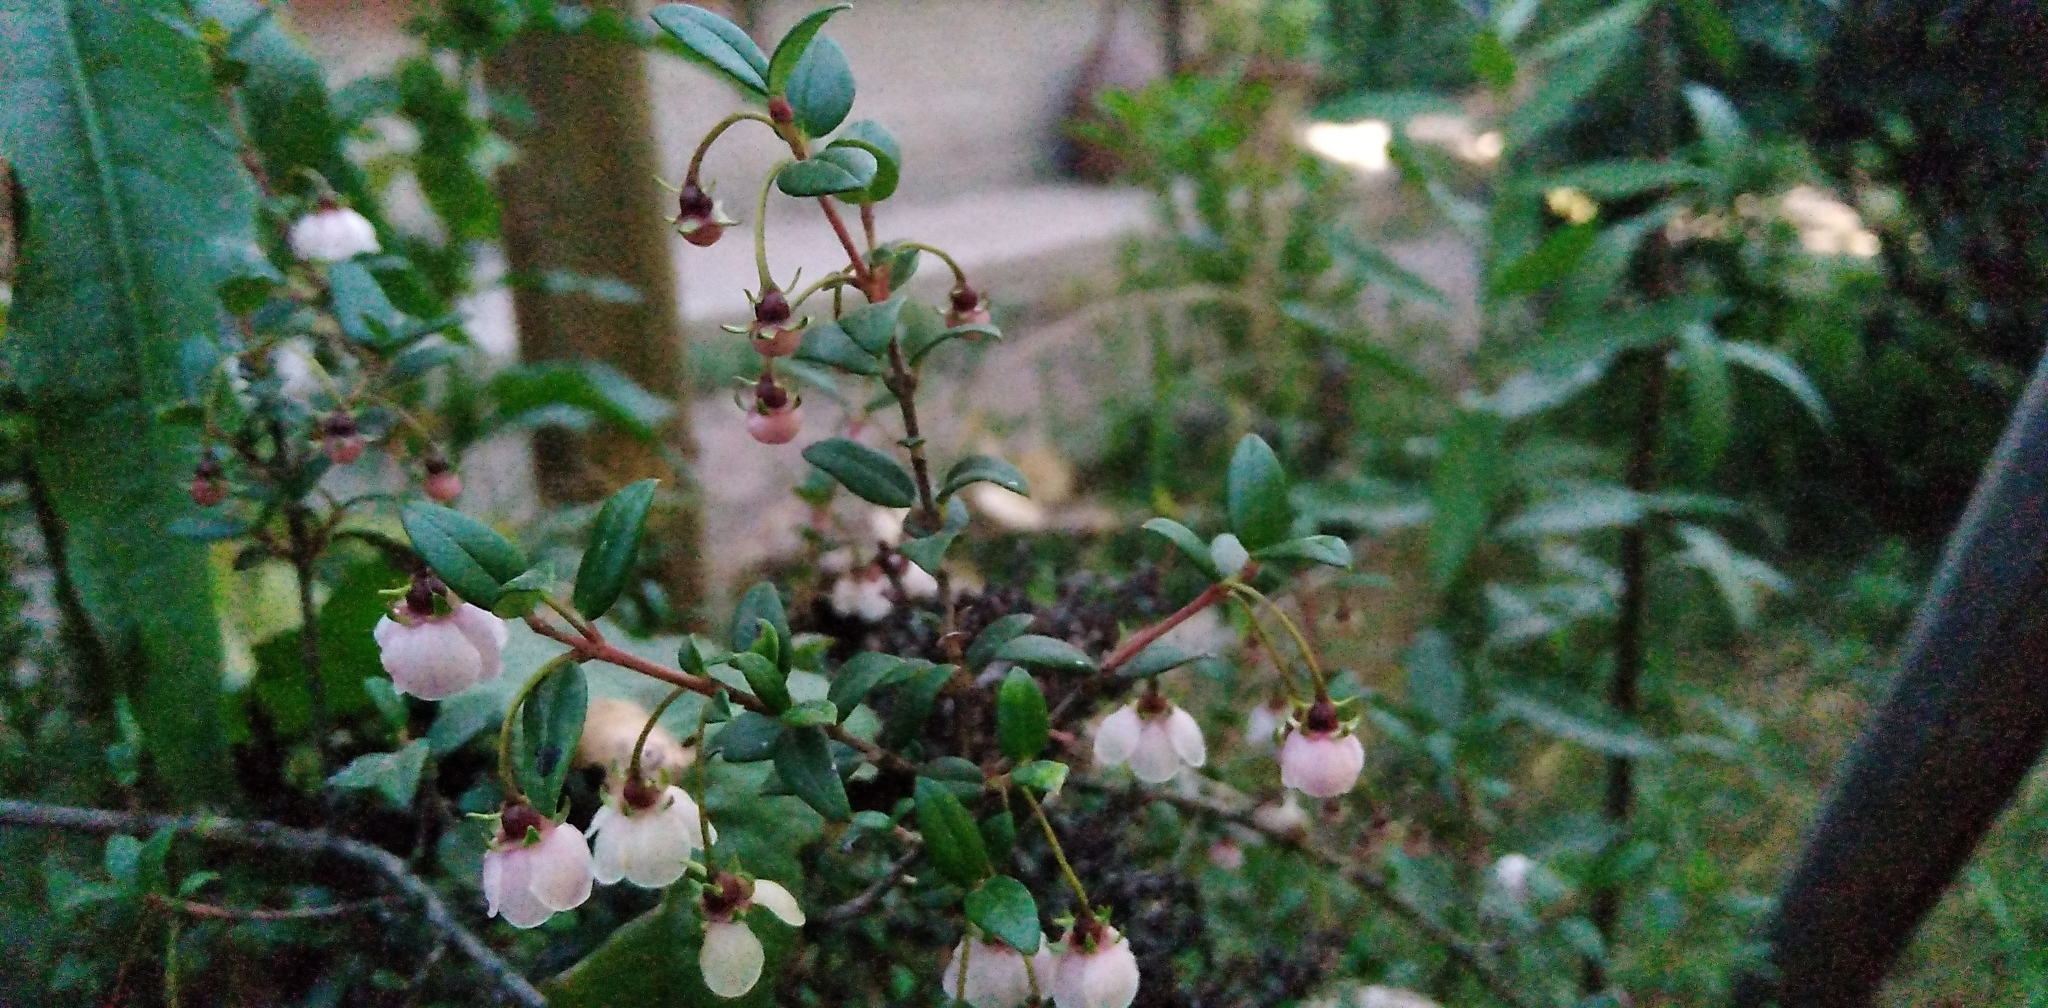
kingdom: Plantae
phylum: Tracheophyta
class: Magnoliopsida
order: Myrtales
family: Myrtaceae
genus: Ugni
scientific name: Ugni molinae
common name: Chilean-guava
